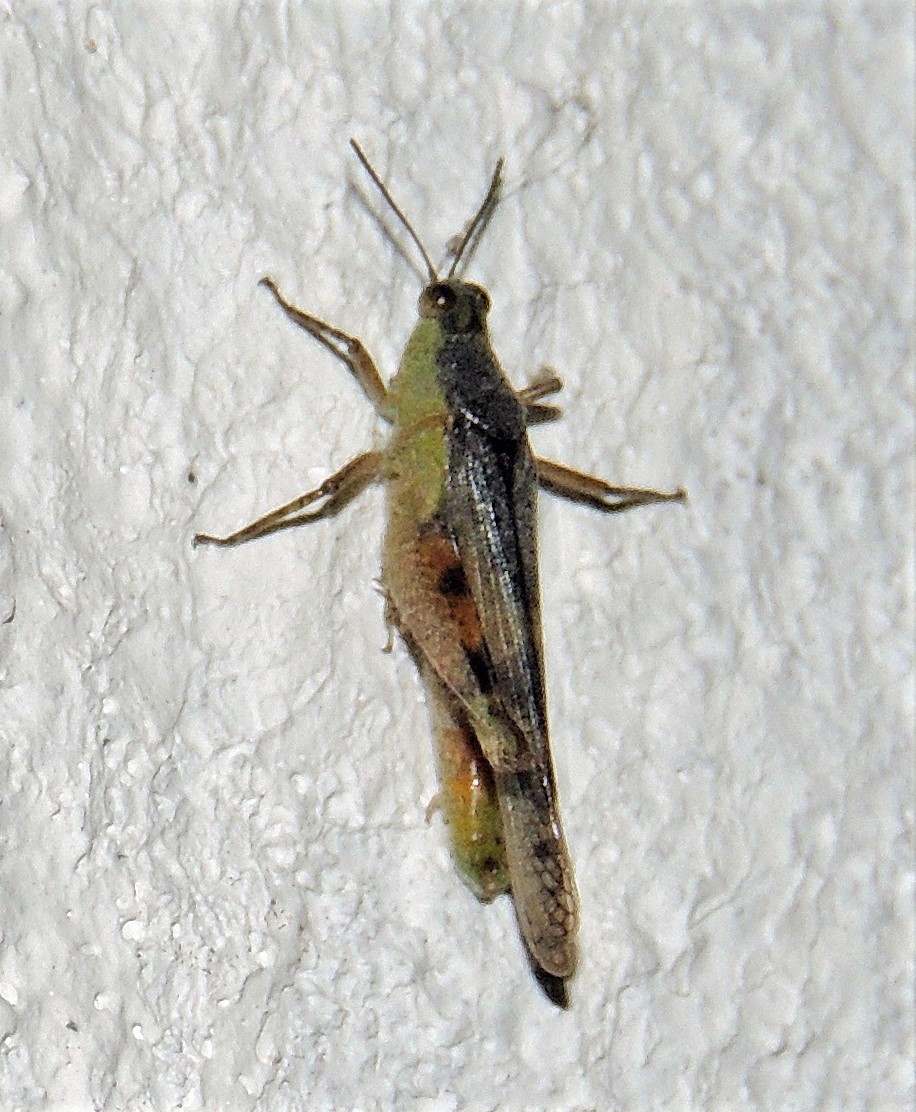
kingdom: Animalia
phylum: Arthropoda
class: Insecta
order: Orthoptera
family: Acrididae
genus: Paulinia
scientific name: Paulinia acuminata
